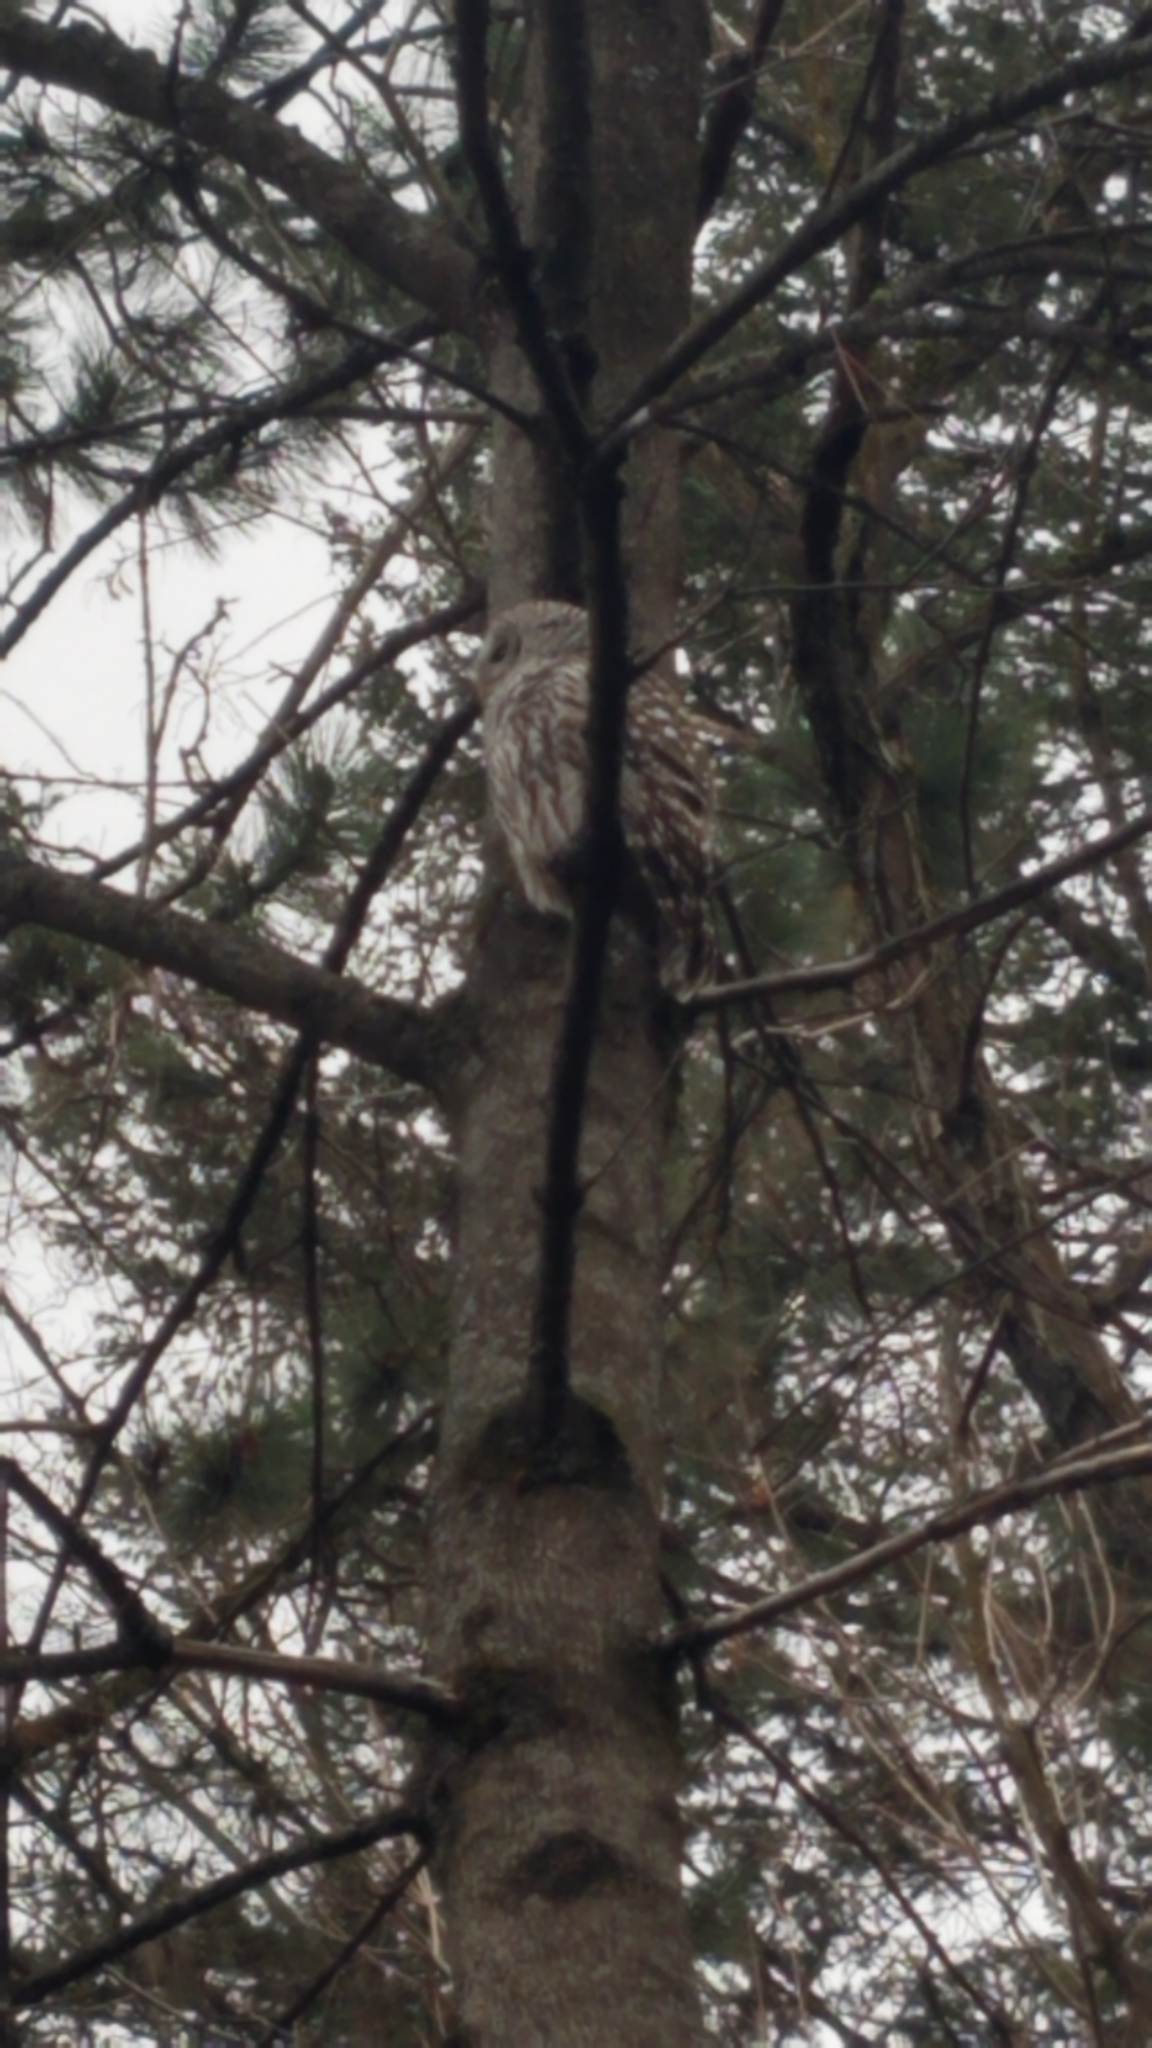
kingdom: Animalia
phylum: Chordata
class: Aves
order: Strigiformes
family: Strigidae
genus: Strix
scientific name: Strix varia
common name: Barred owl
